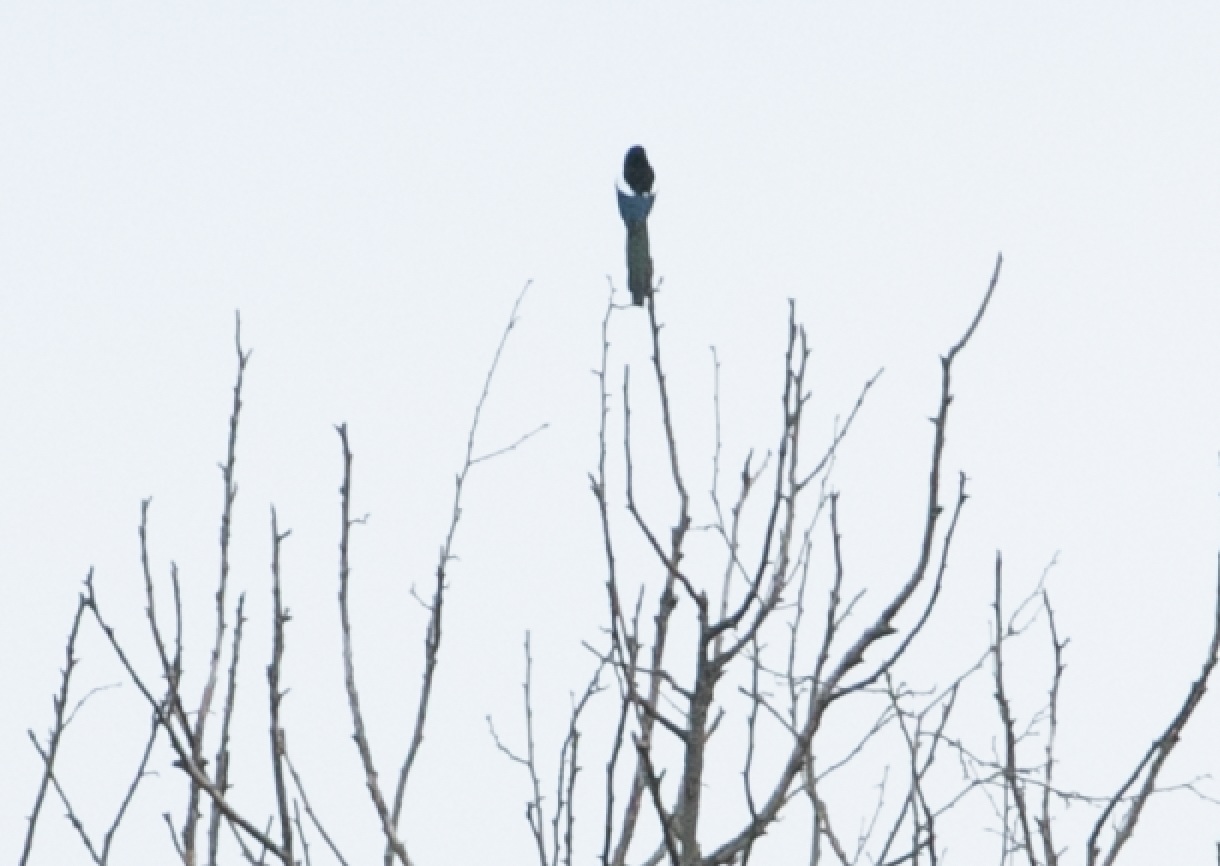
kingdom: Animalia
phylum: Chordata
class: Aves
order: Passeriformes
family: Corvidae
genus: Pica
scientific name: Pica pica
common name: Eurasian magpie
